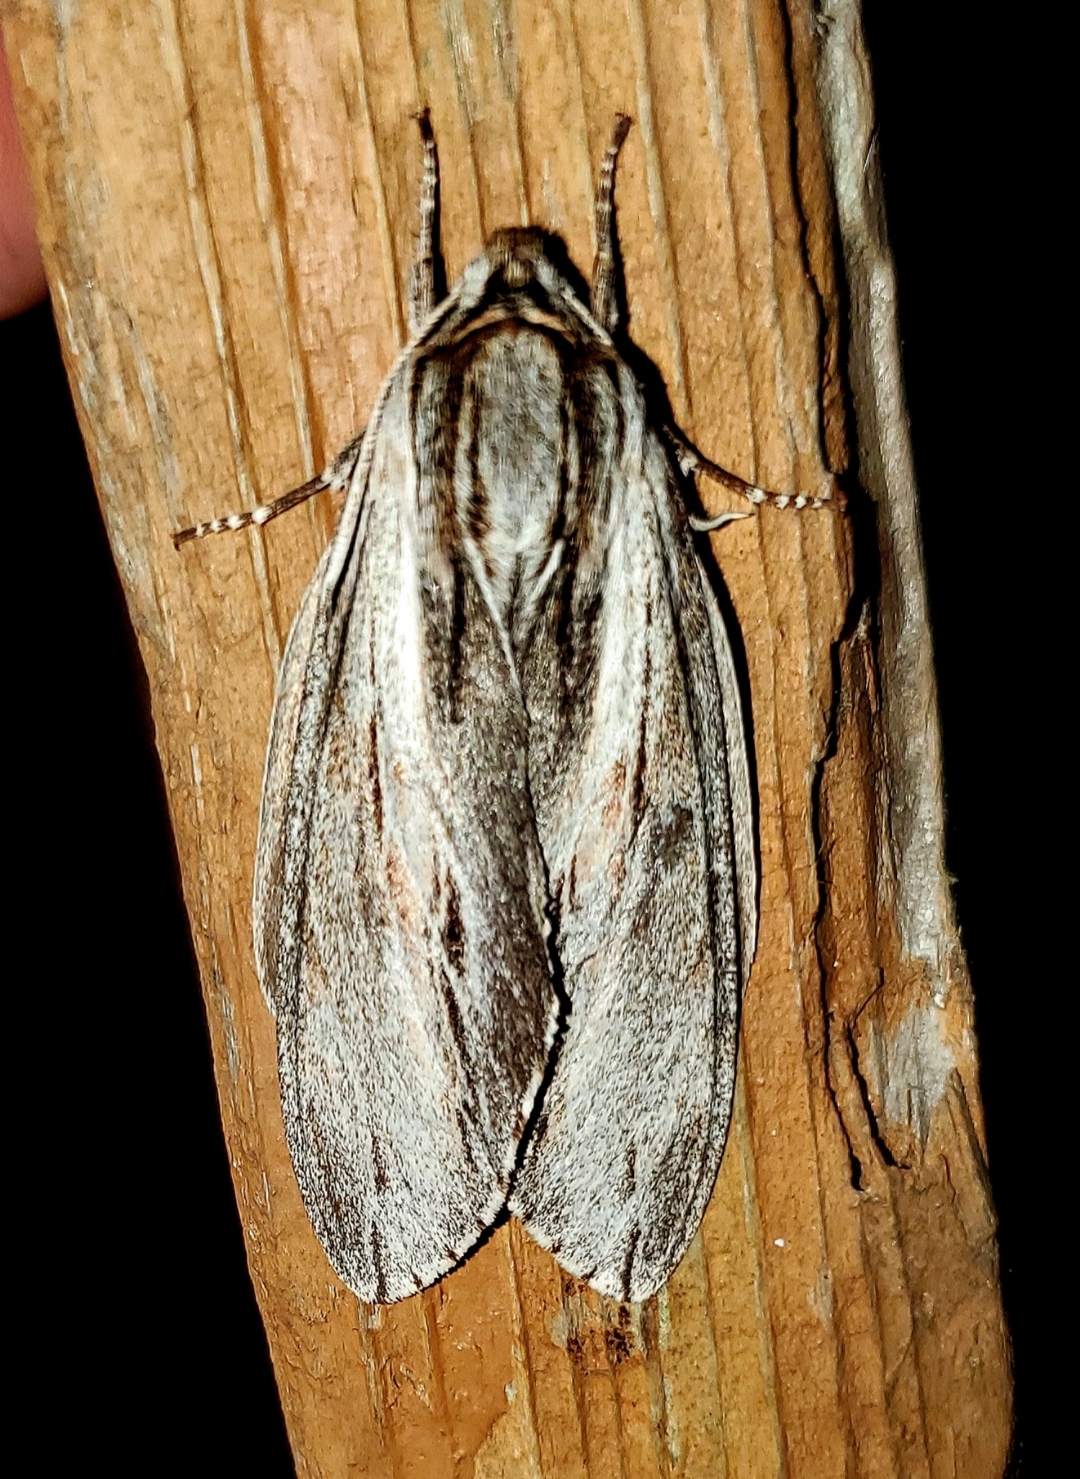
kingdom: Animalia
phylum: Arthropoda
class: Insecta
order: Lepidoptera
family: Sphingidae
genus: Isoparce
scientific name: Isoparce cupressi
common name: Cypress sphinx
